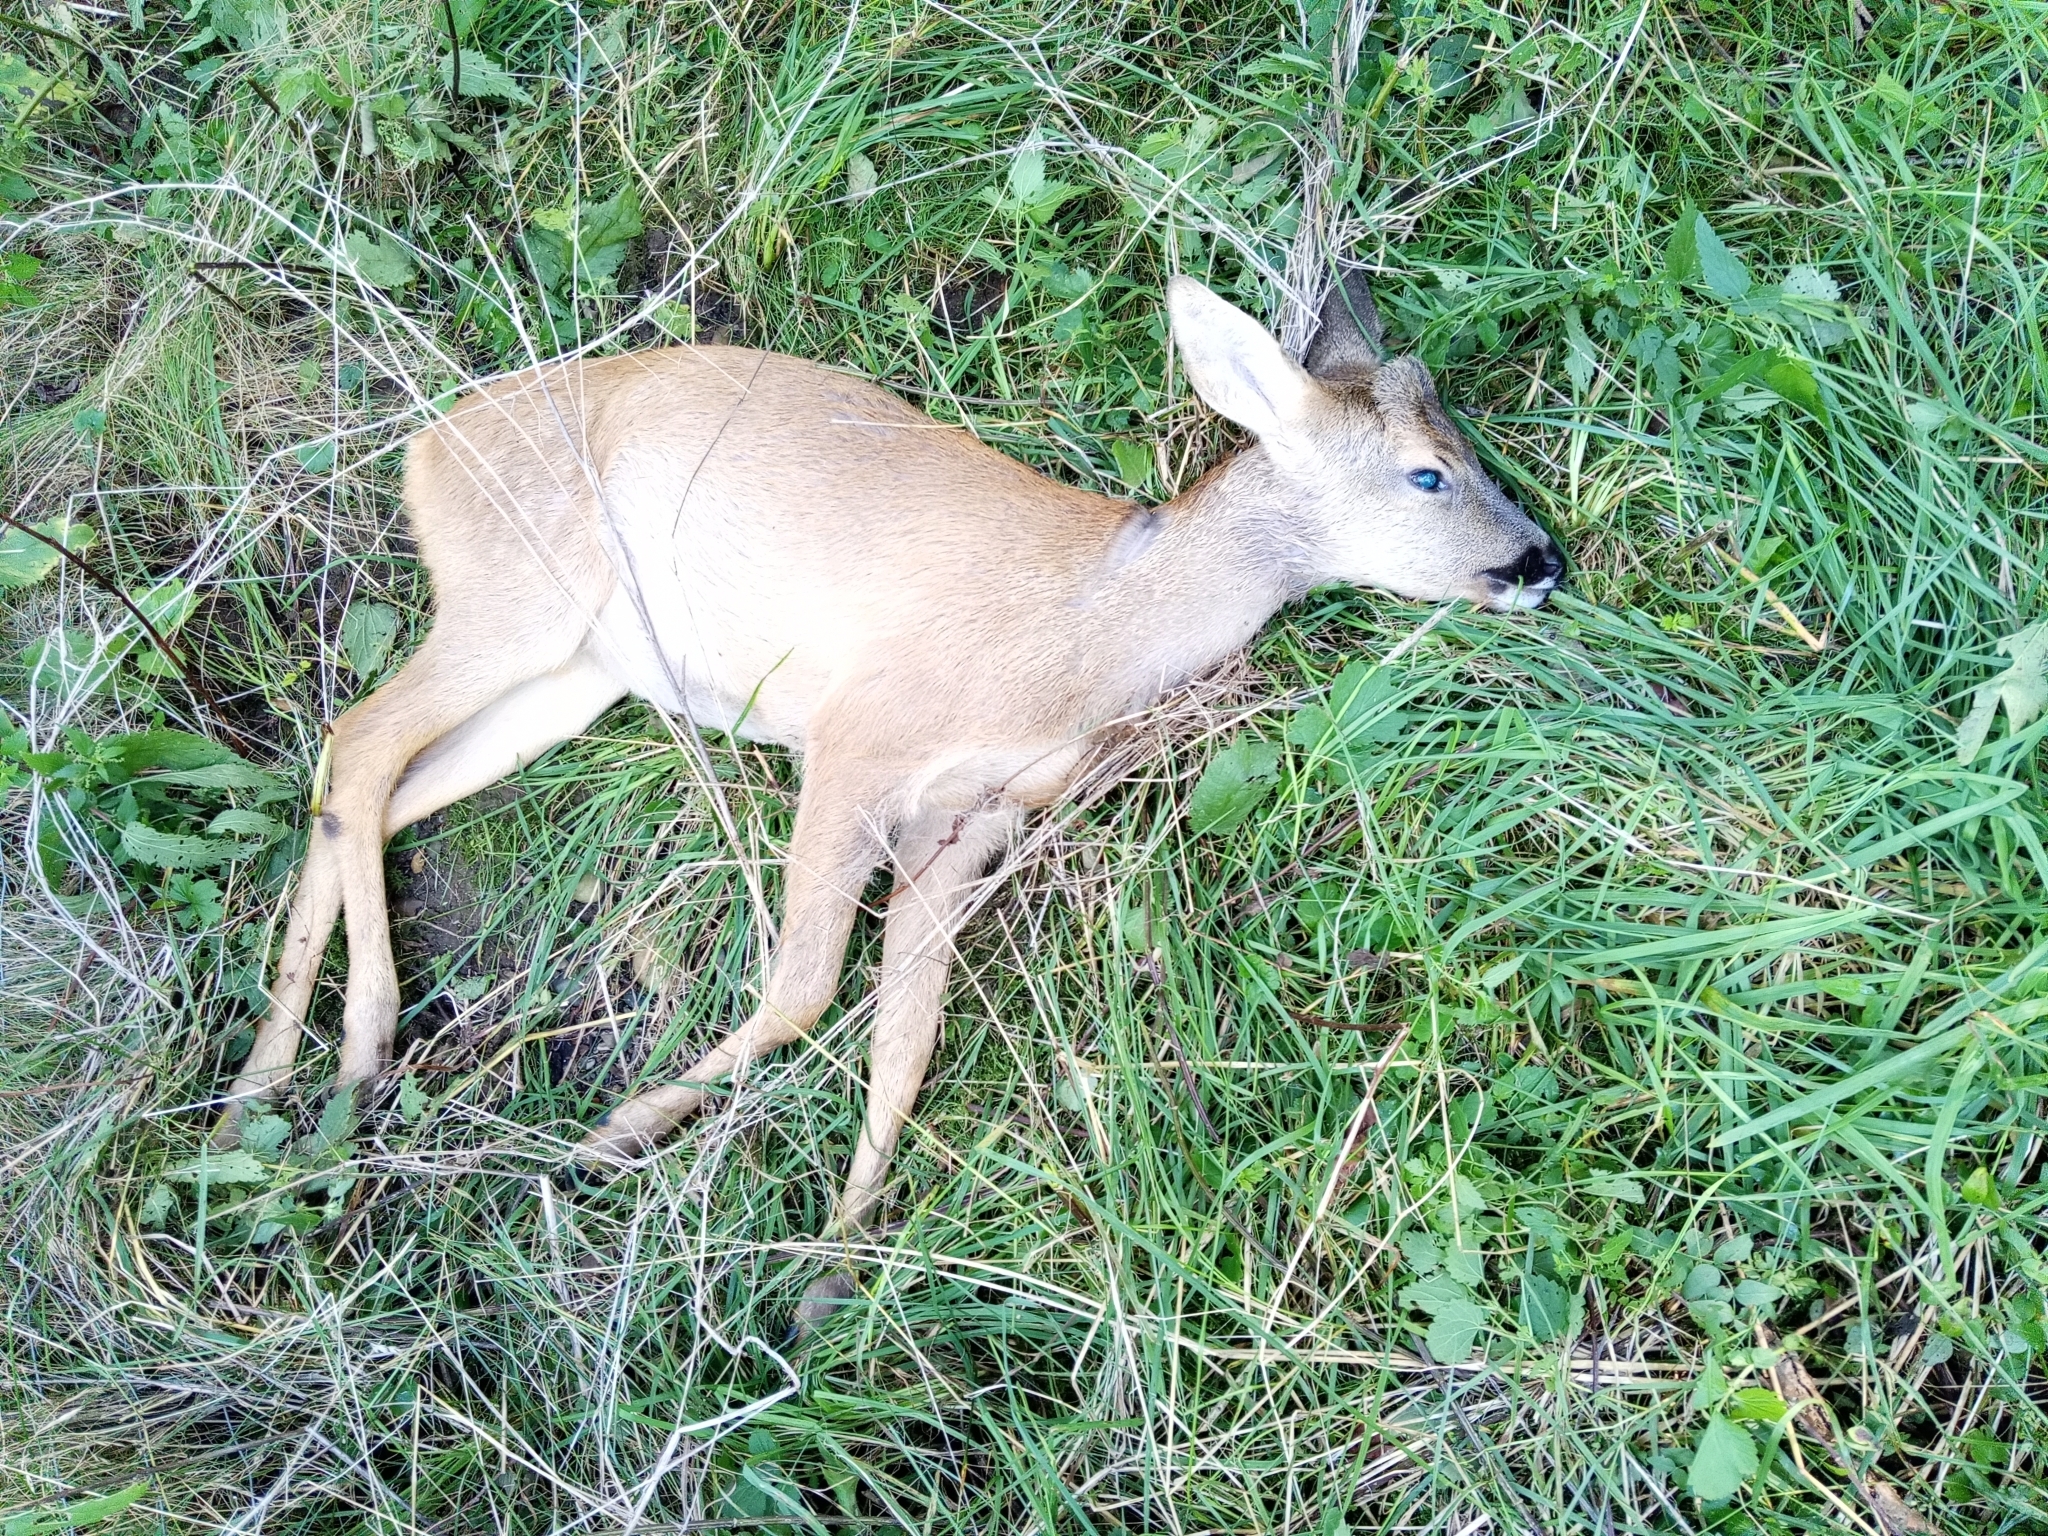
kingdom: Animalia
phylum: Chordata
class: Mammalia
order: Artiodactyla
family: Cervidae
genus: Capreolus
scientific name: Capreolus capreolus
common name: Western roe deer
